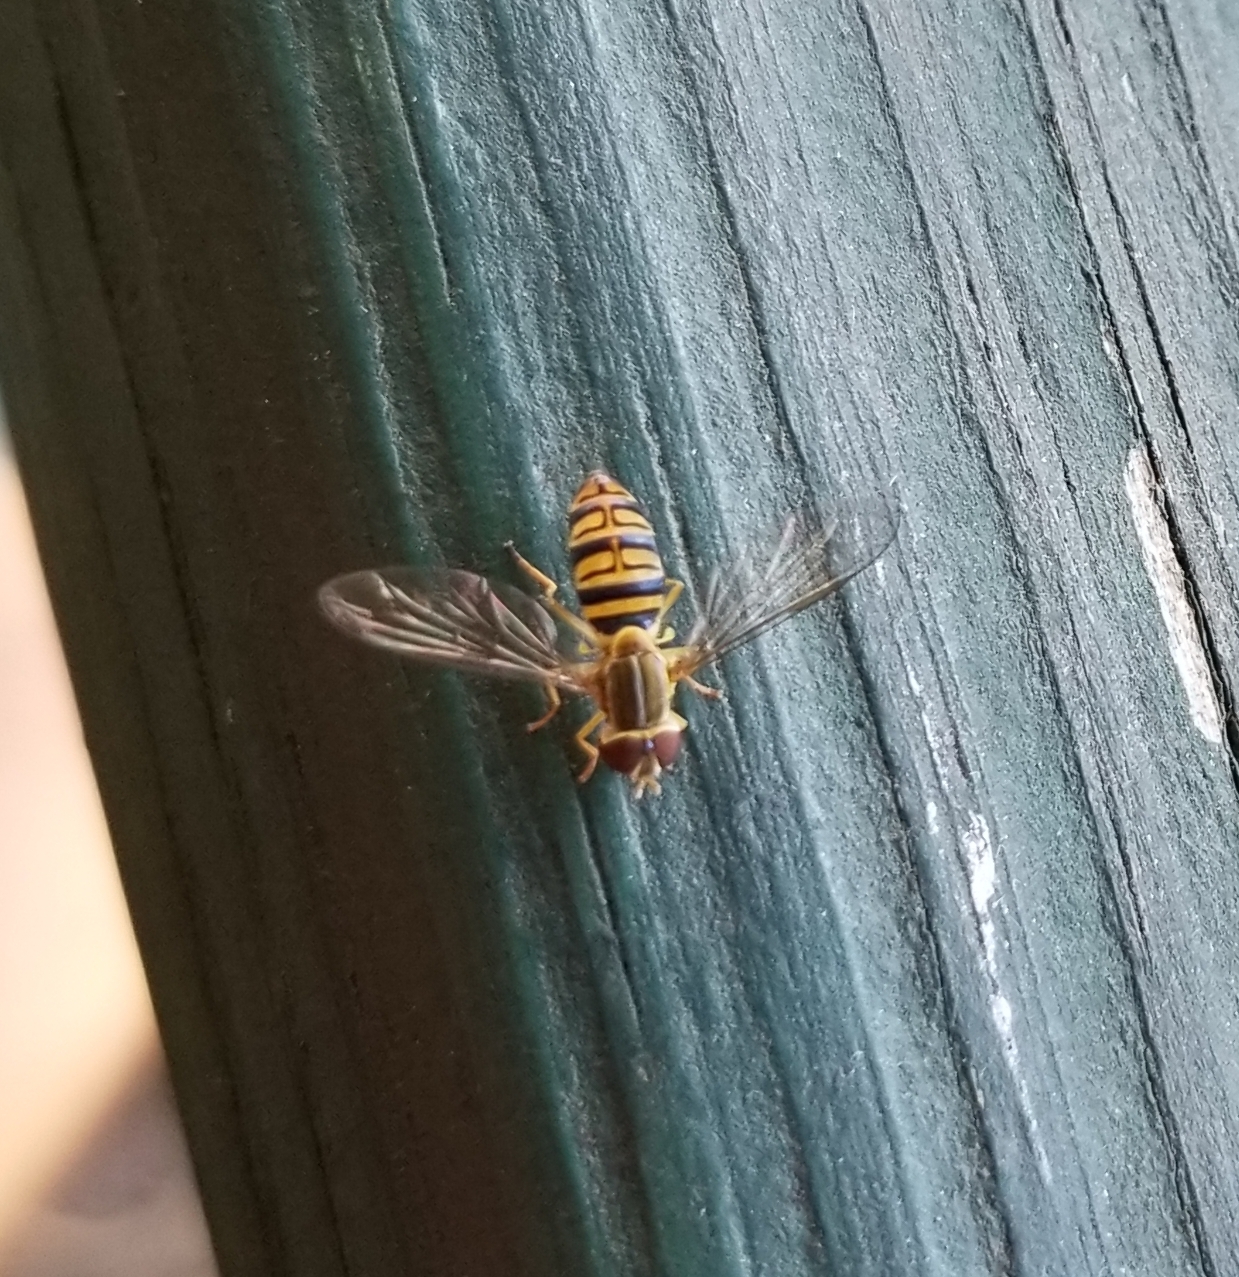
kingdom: Animalia
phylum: Arthropoda
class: Insecta
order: Diptera
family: Syrphidae
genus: Toxomerus
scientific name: Toxomerus politus
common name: Maize calligrapher
